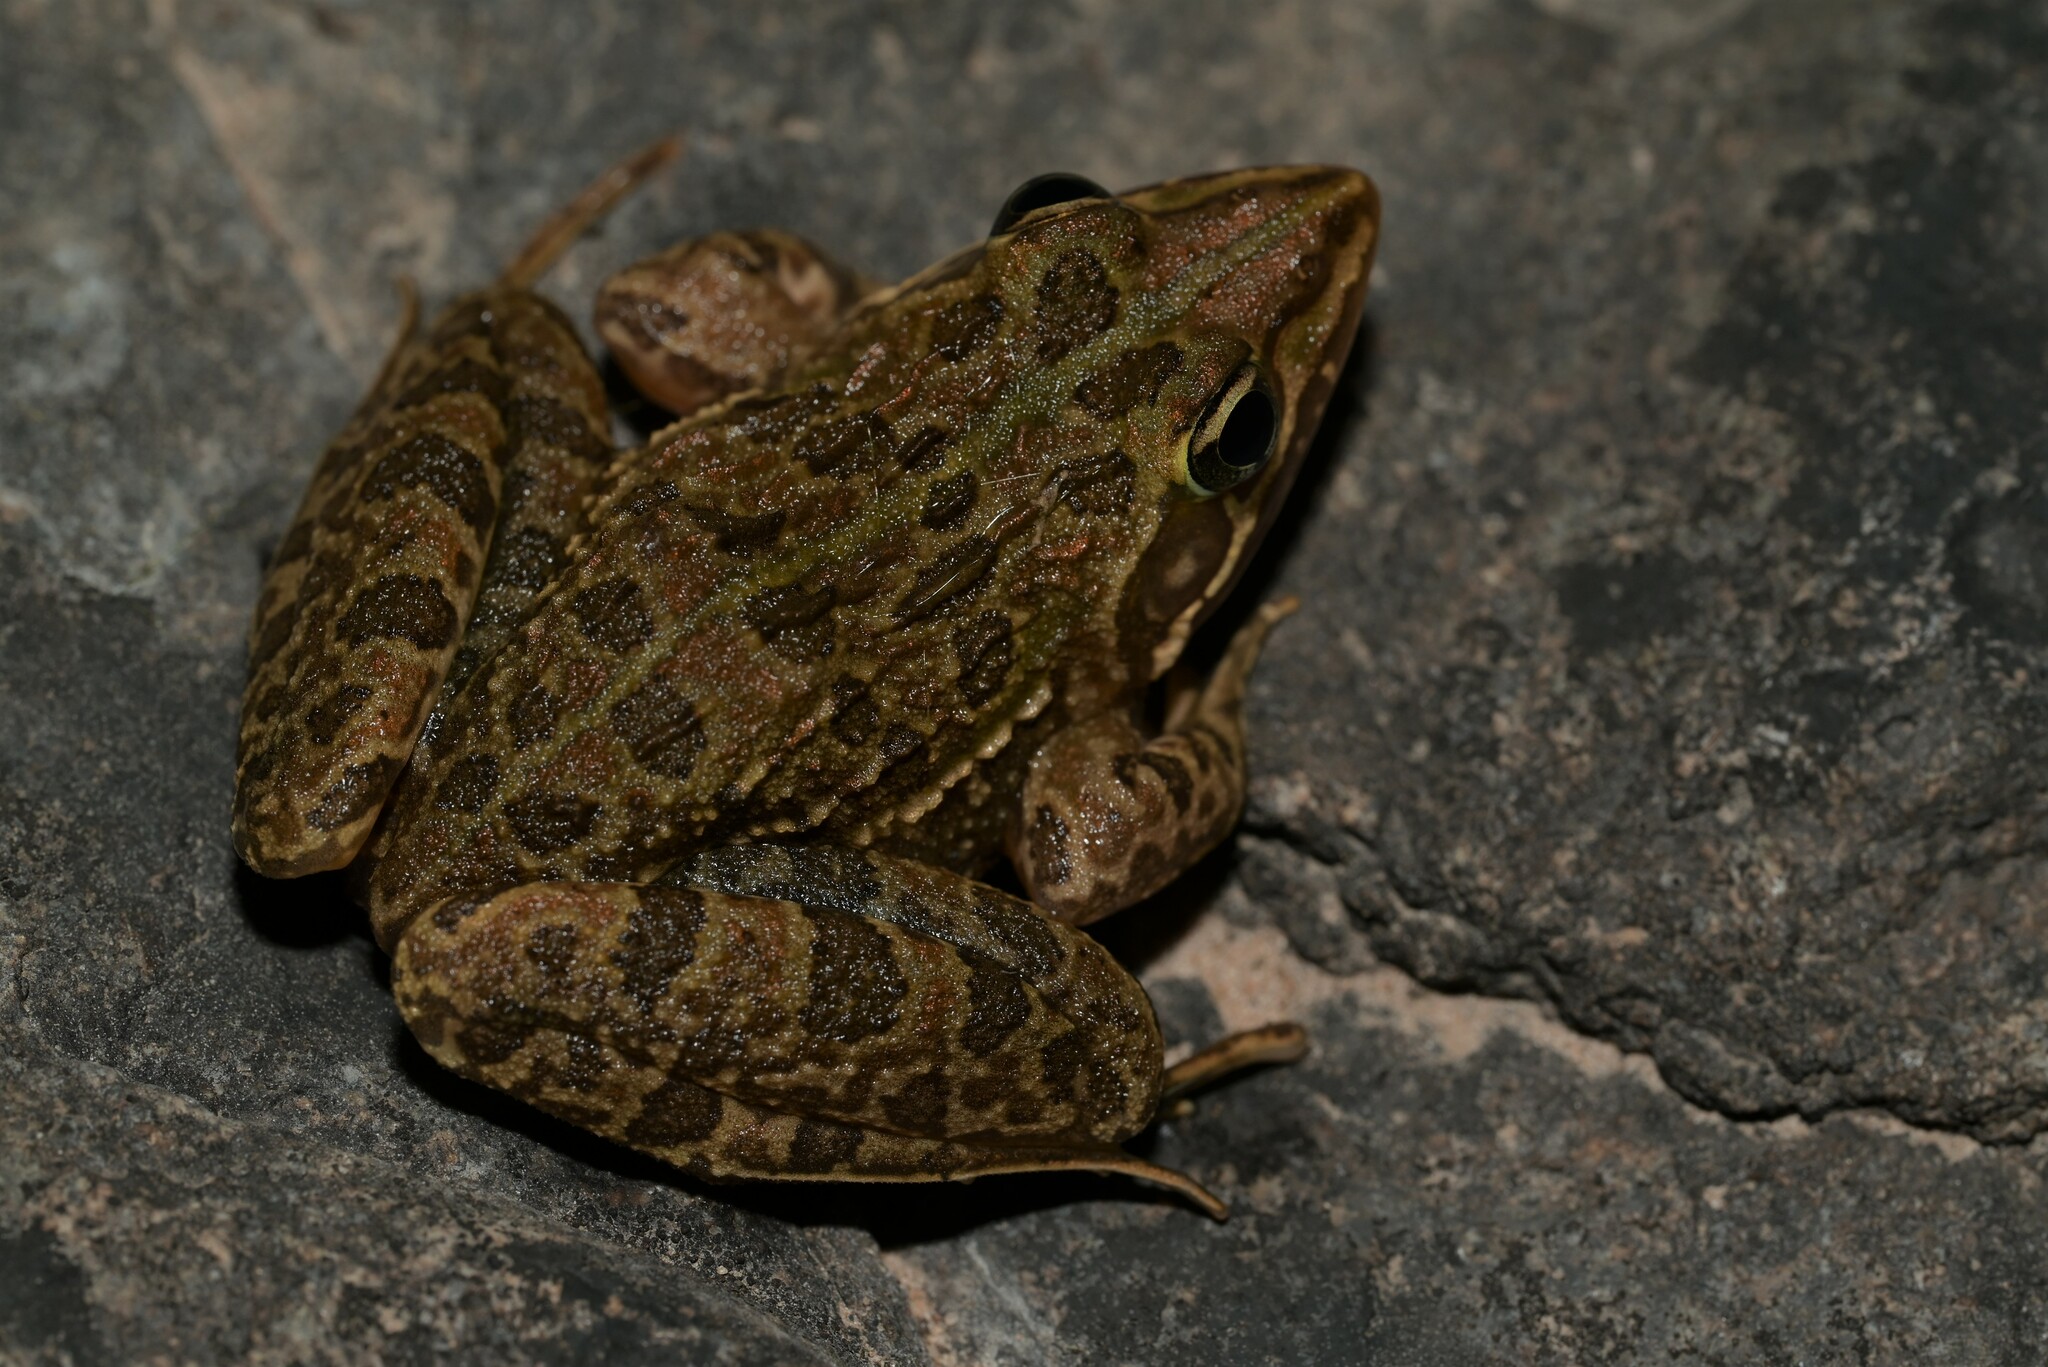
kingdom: Animalia
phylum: Chordata
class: Amphibia
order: Anura
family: Pyxicephalidae
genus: Amietia
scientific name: Amietia delalandii
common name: Delalande's river frog
